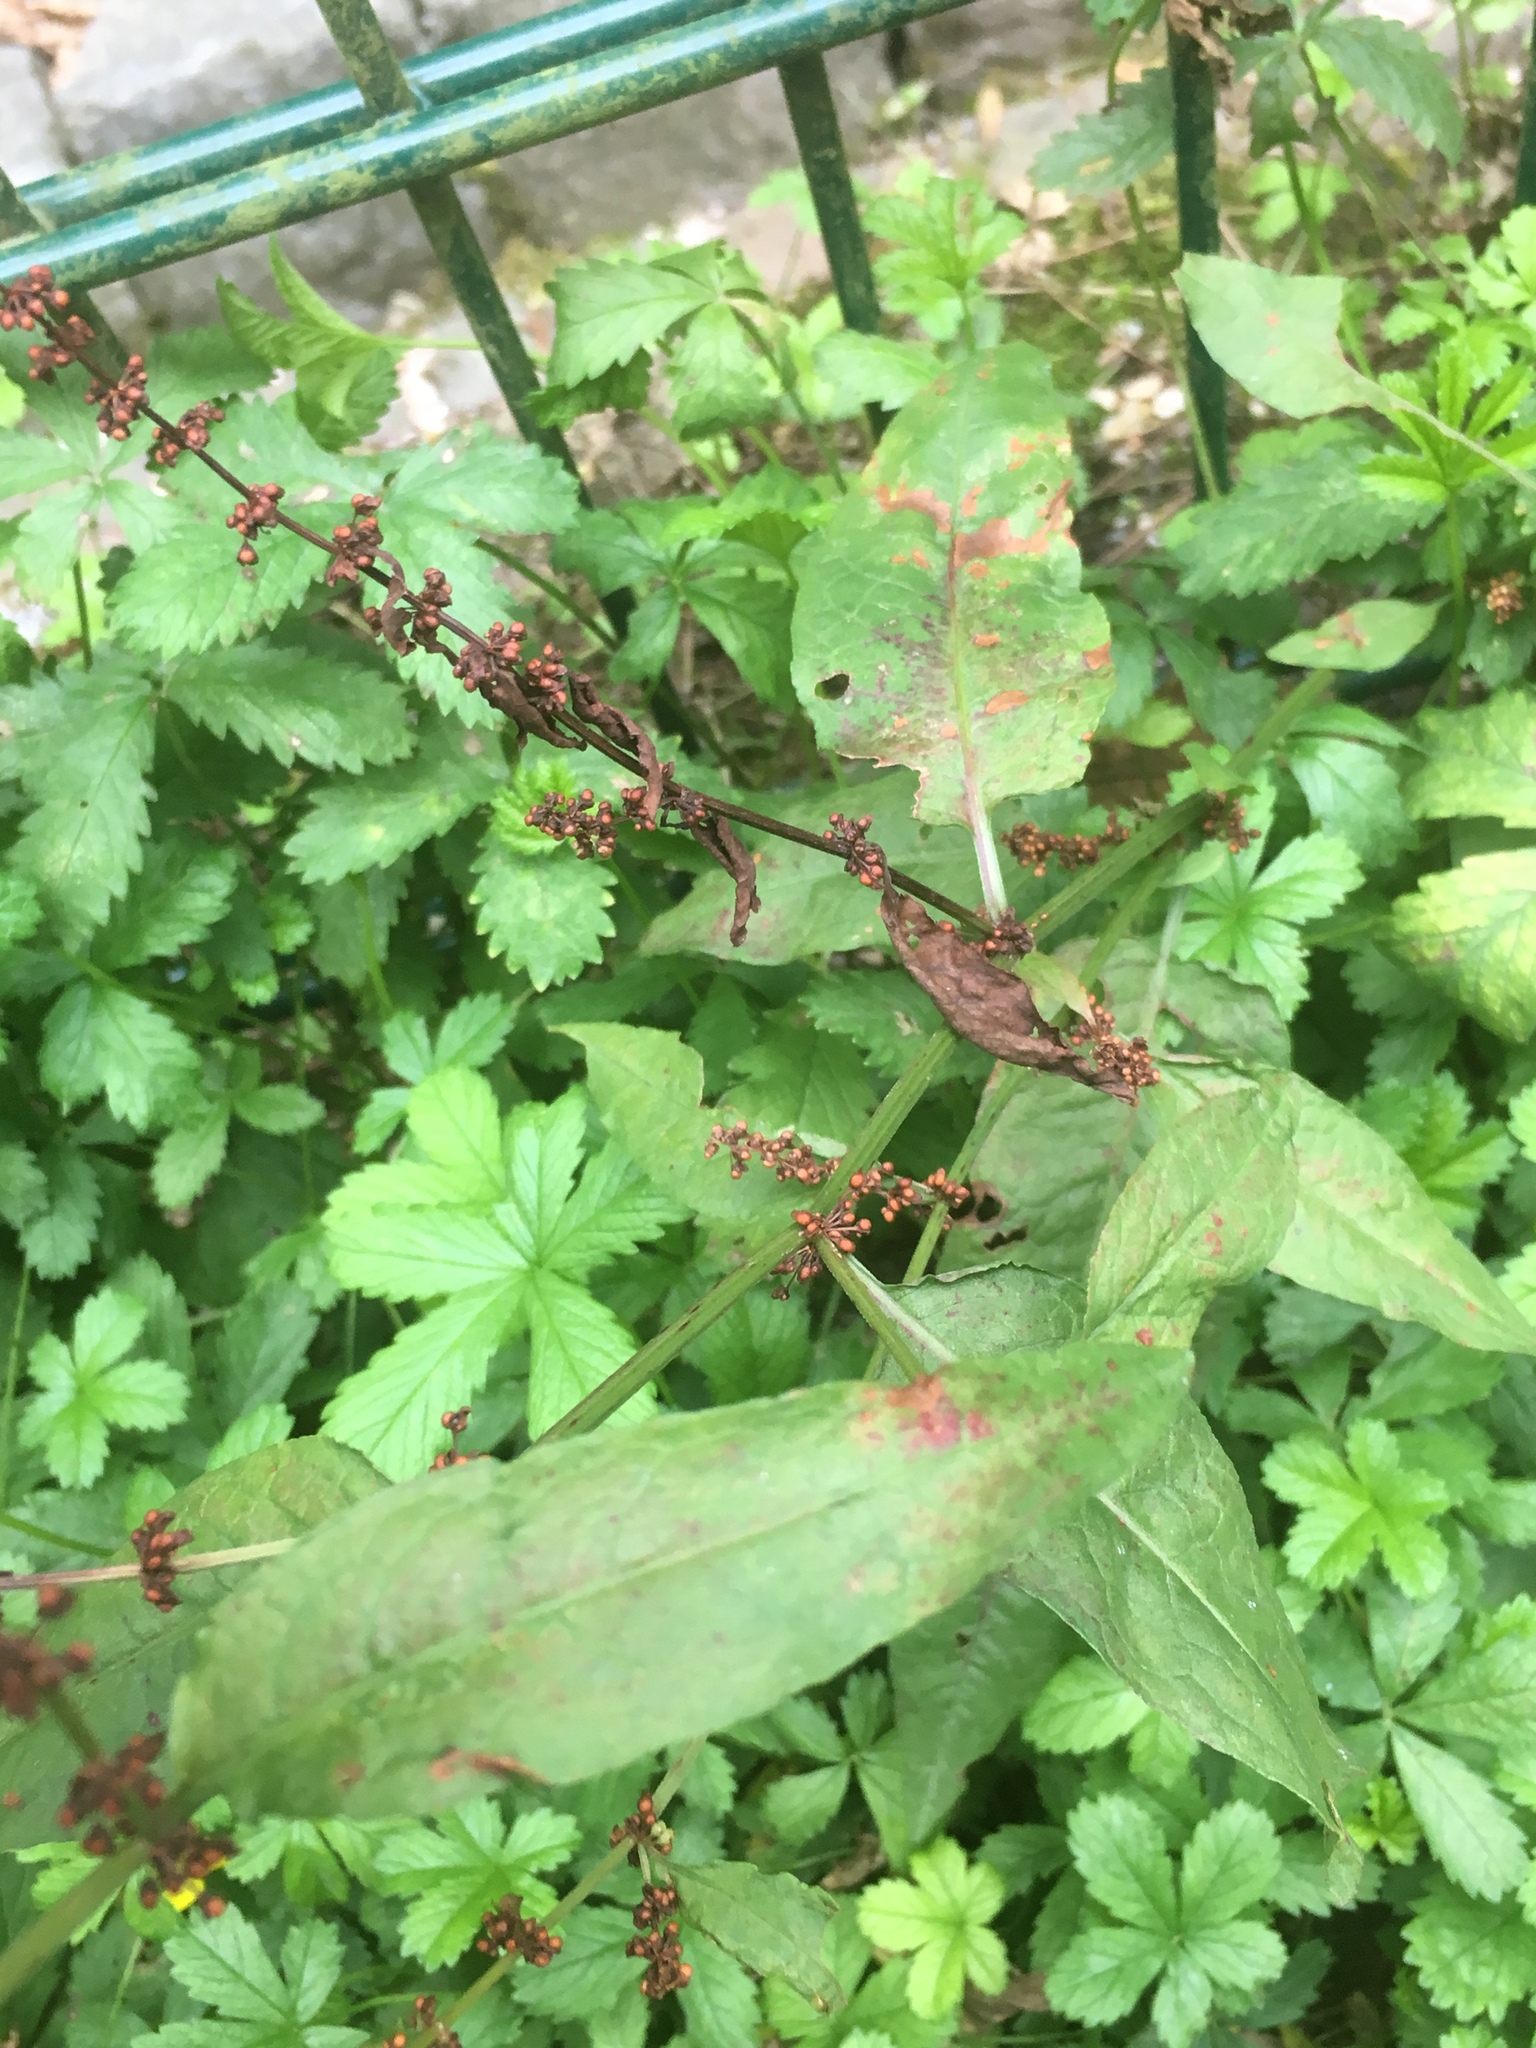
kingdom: Plantae
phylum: Tracheophyta
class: Magnoliopsida
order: Caryophyllales
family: Polygonaceae
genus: Rumex
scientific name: Rumex sanguineus
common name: Wood dock
